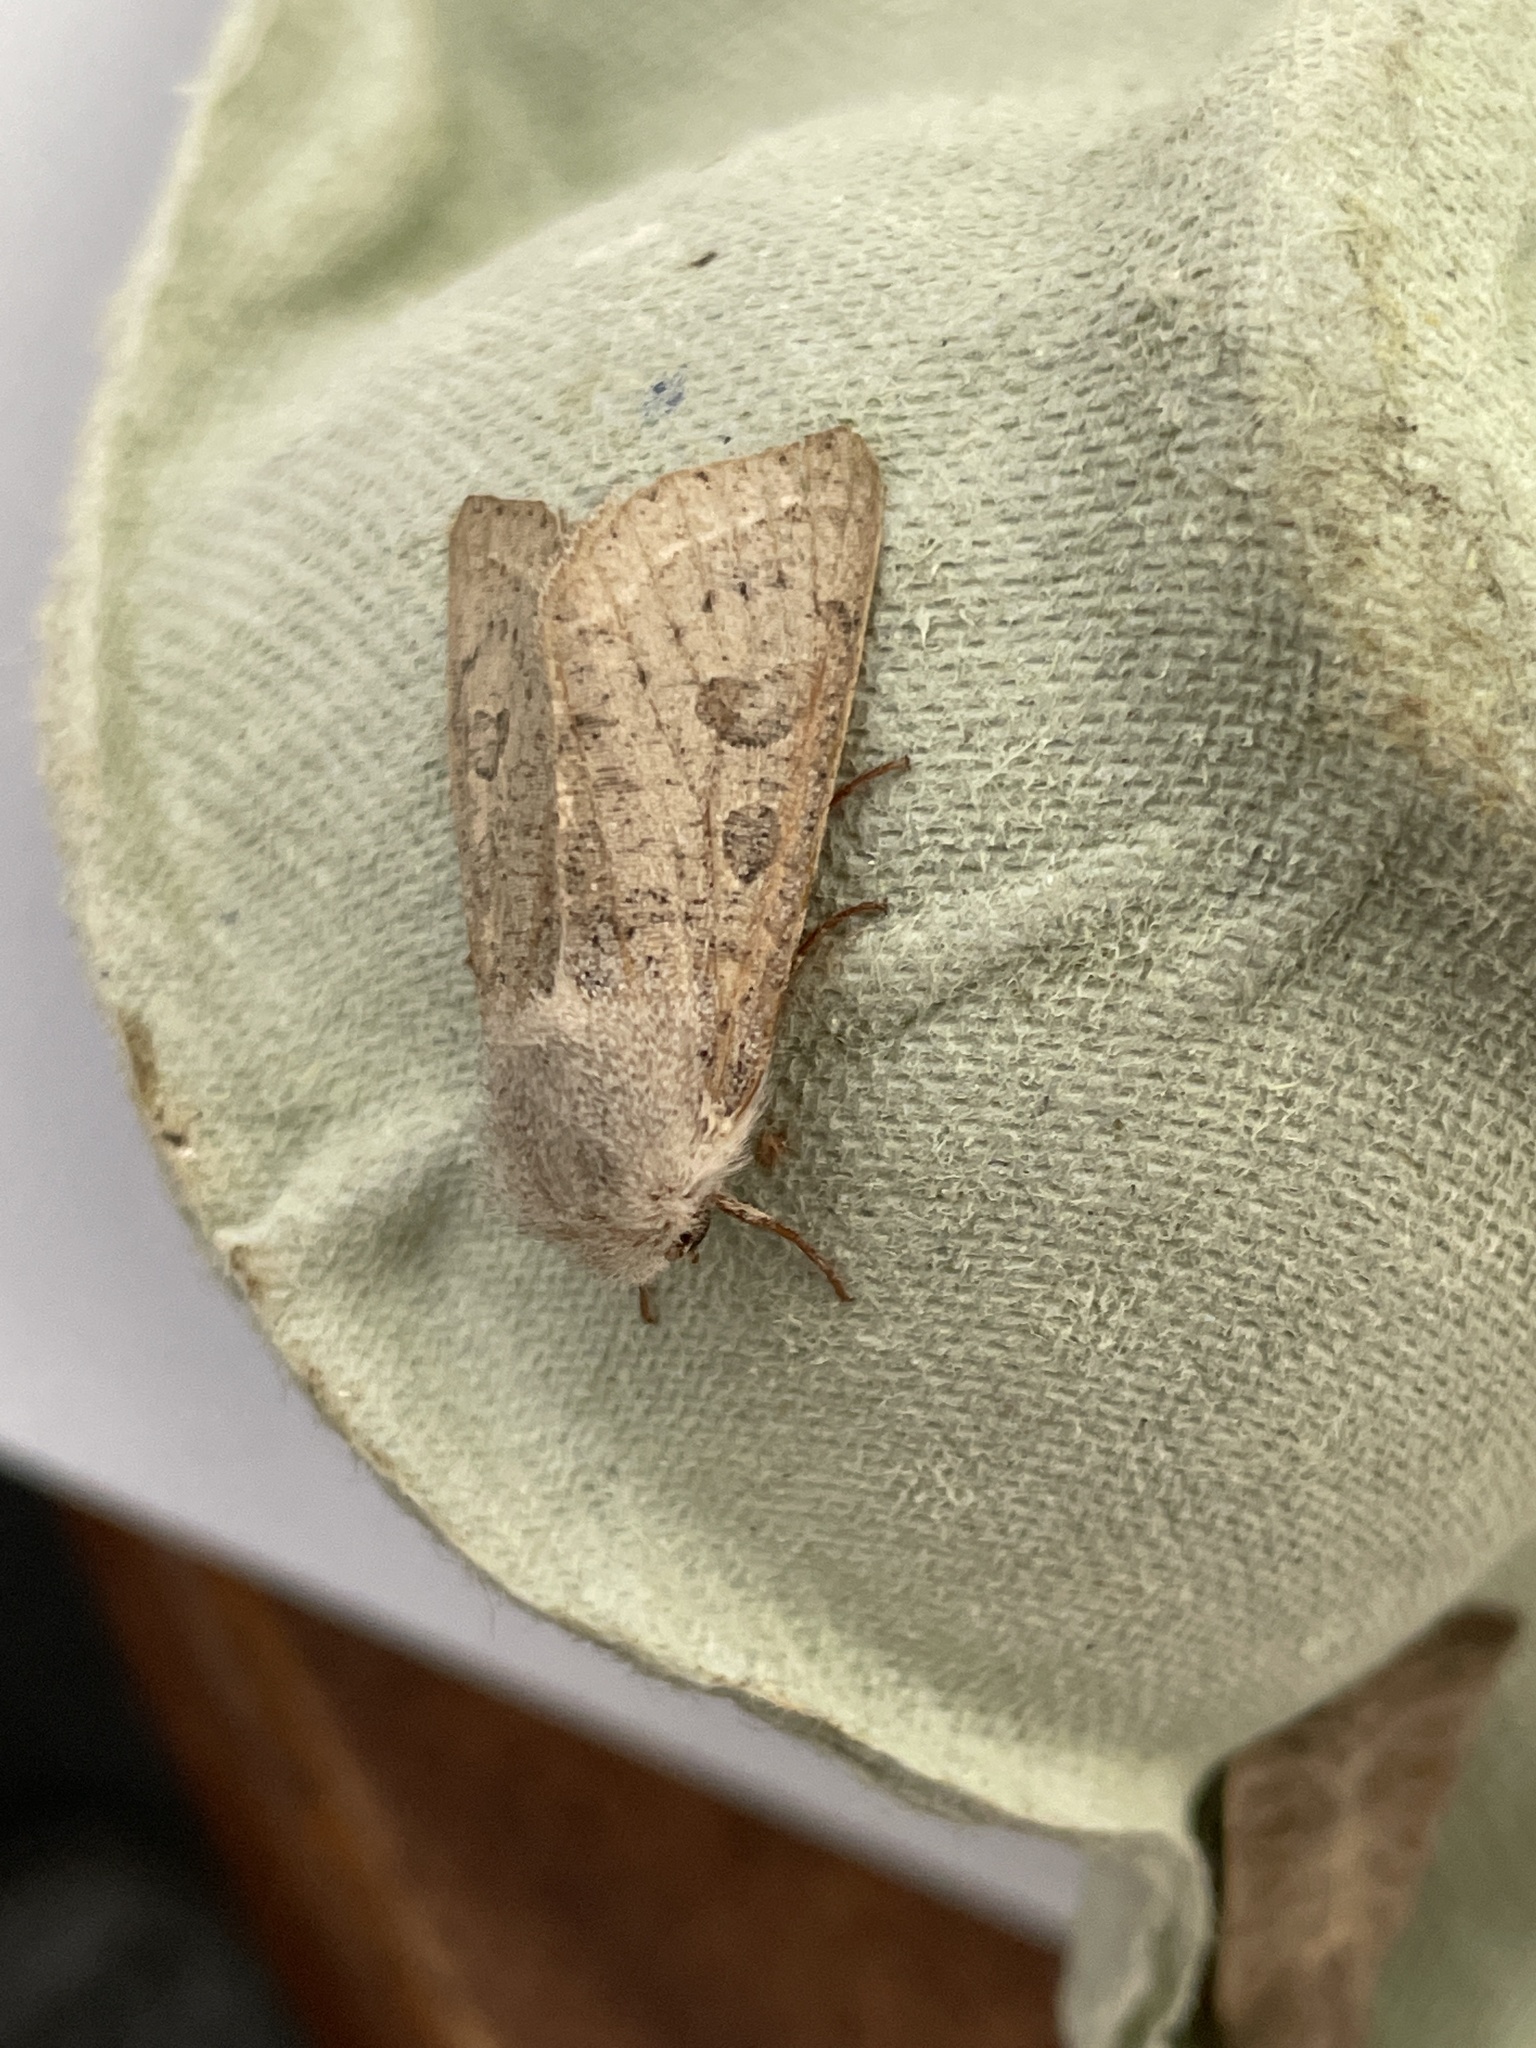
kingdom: Animalia
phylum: Arthropoda
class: Insecta
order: Lepidoptera
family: Noctuidae
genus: Orthosia
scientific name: Orthosia gracilis
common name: Powdered quaker
